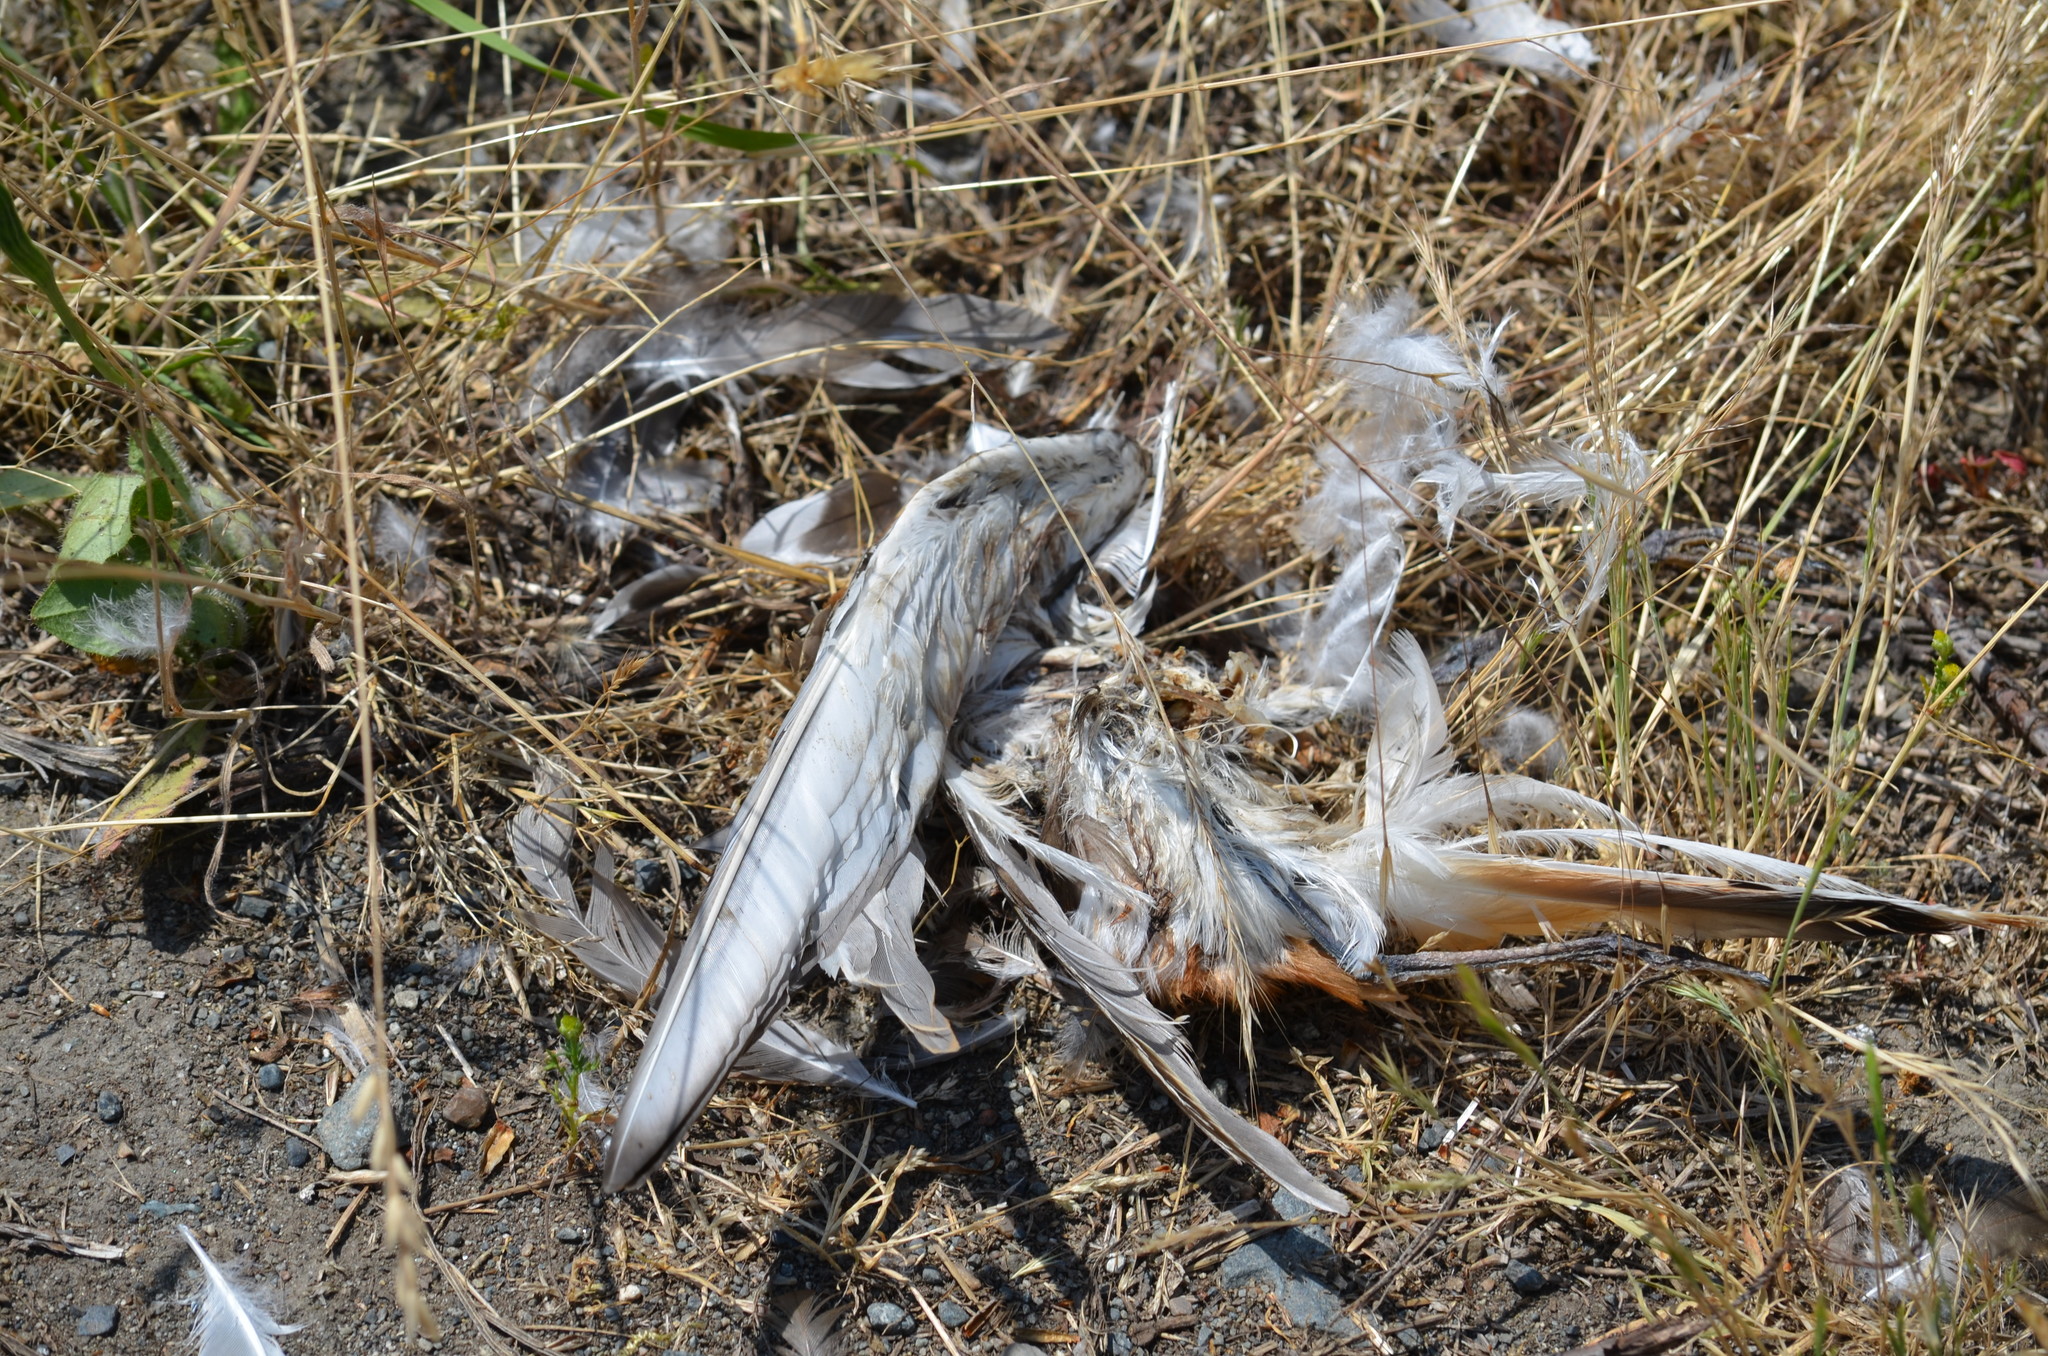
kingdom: Animalia
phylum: Chordata
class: Aves
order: Charadriiformes
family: Charadriidae
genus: Charadrius
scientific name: Charadrius vociferus
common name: Killdeer
